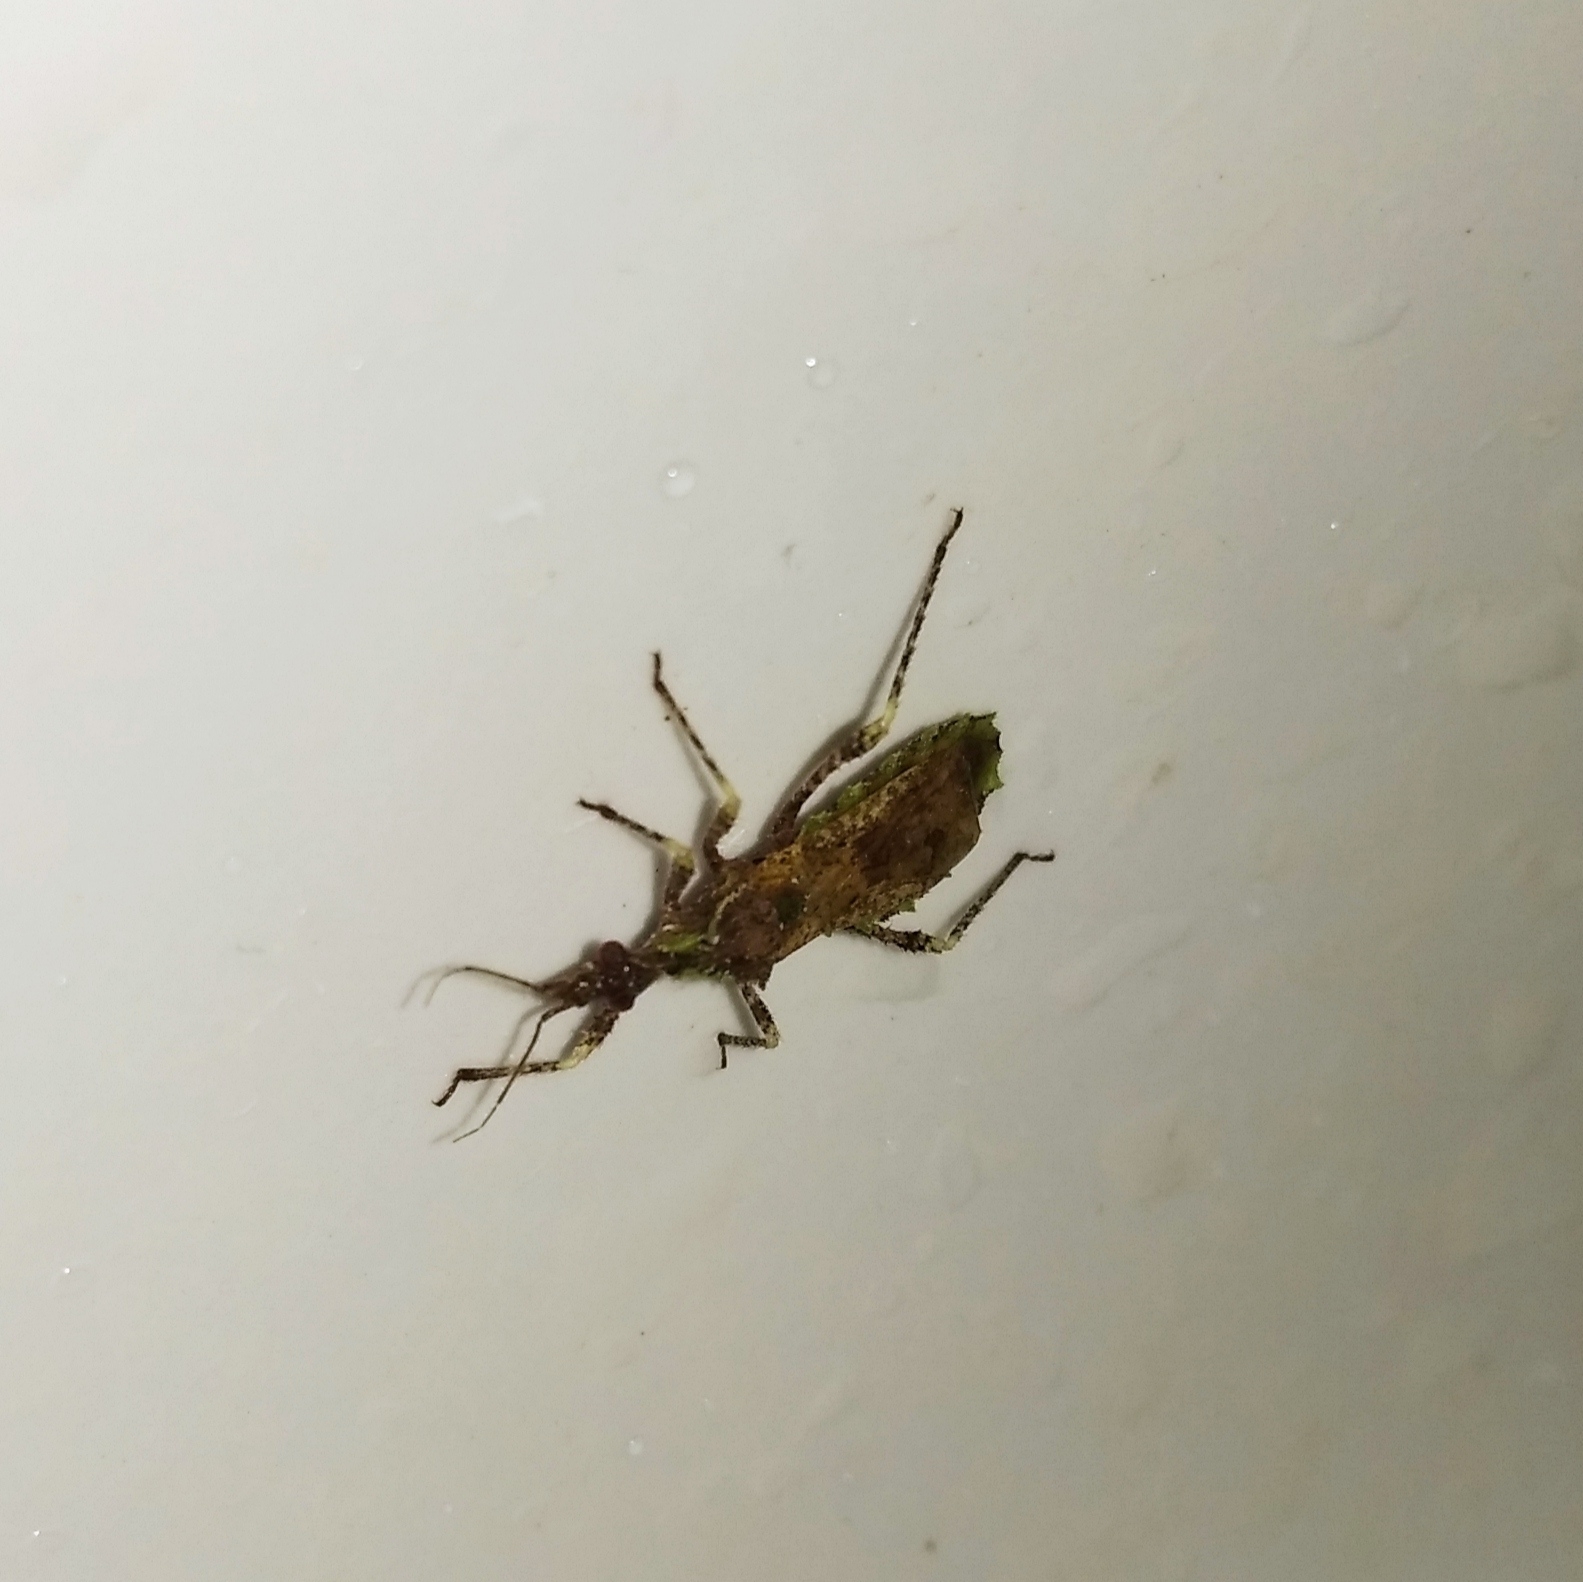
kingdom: Animalia
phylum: Arthropoda
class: Insecta
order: Hemiptera
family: Reduviidae
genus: Nitornus
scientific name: Nitornus lobulatus
